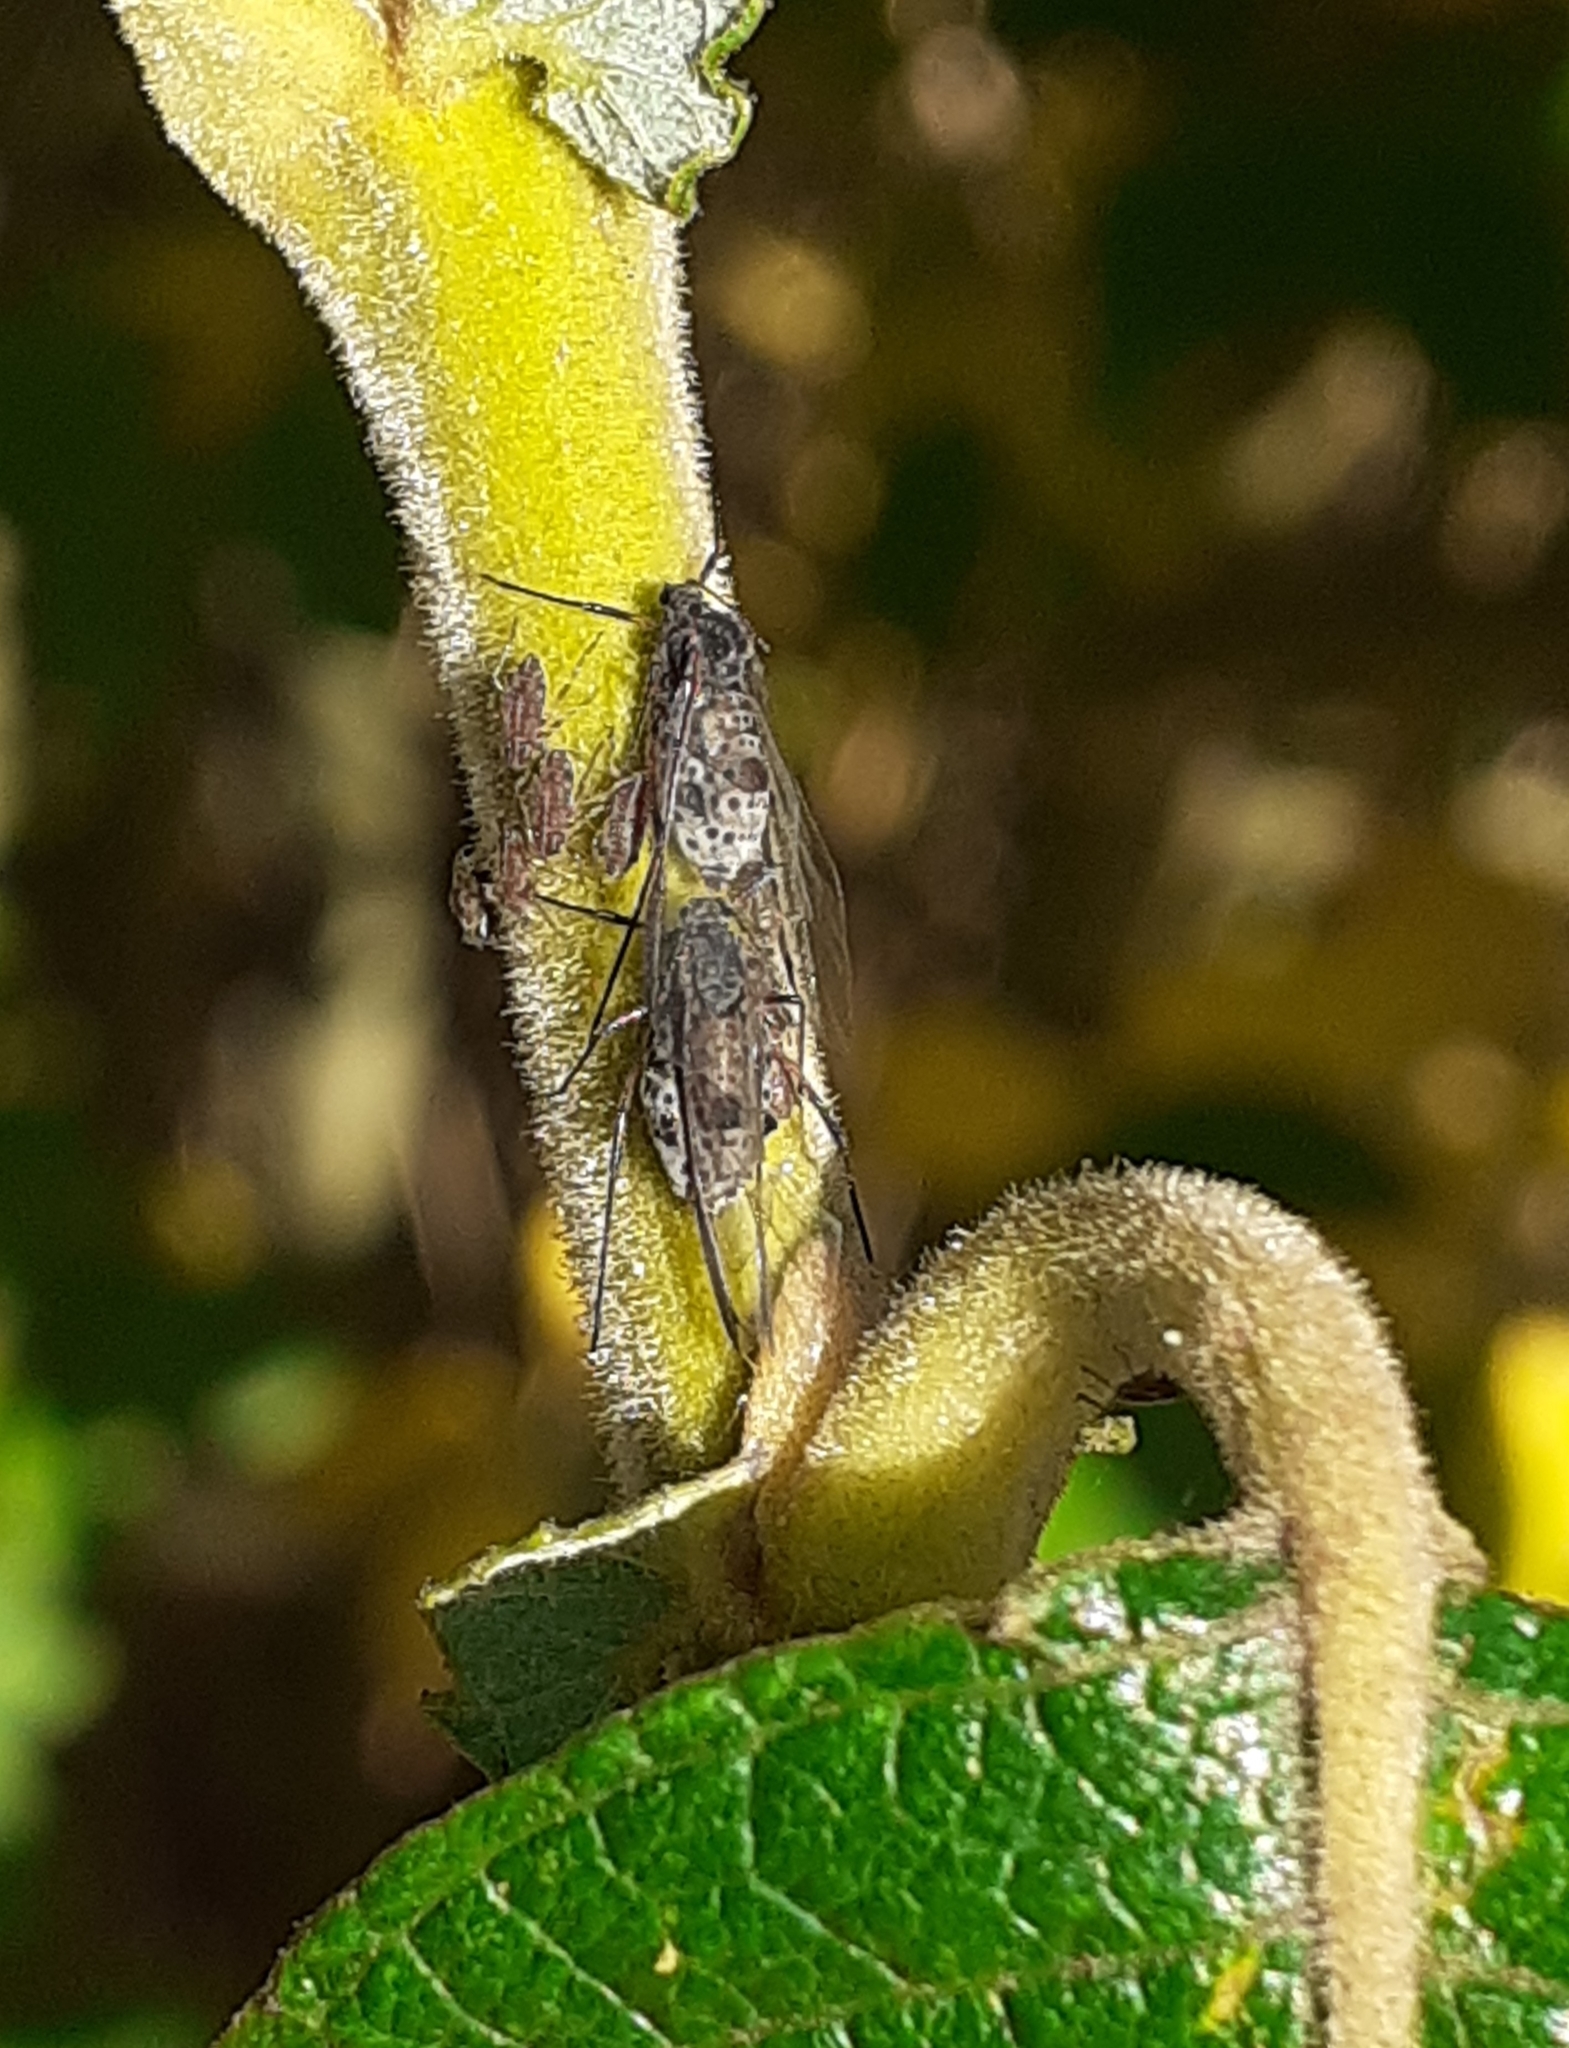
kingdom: Animalia
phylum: Arthropoda
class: Insecta
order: Hemiptera
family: Aphididae
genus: Tuberolachnus
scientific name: Tuberolachnus salignus
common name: Giant willow aphid
